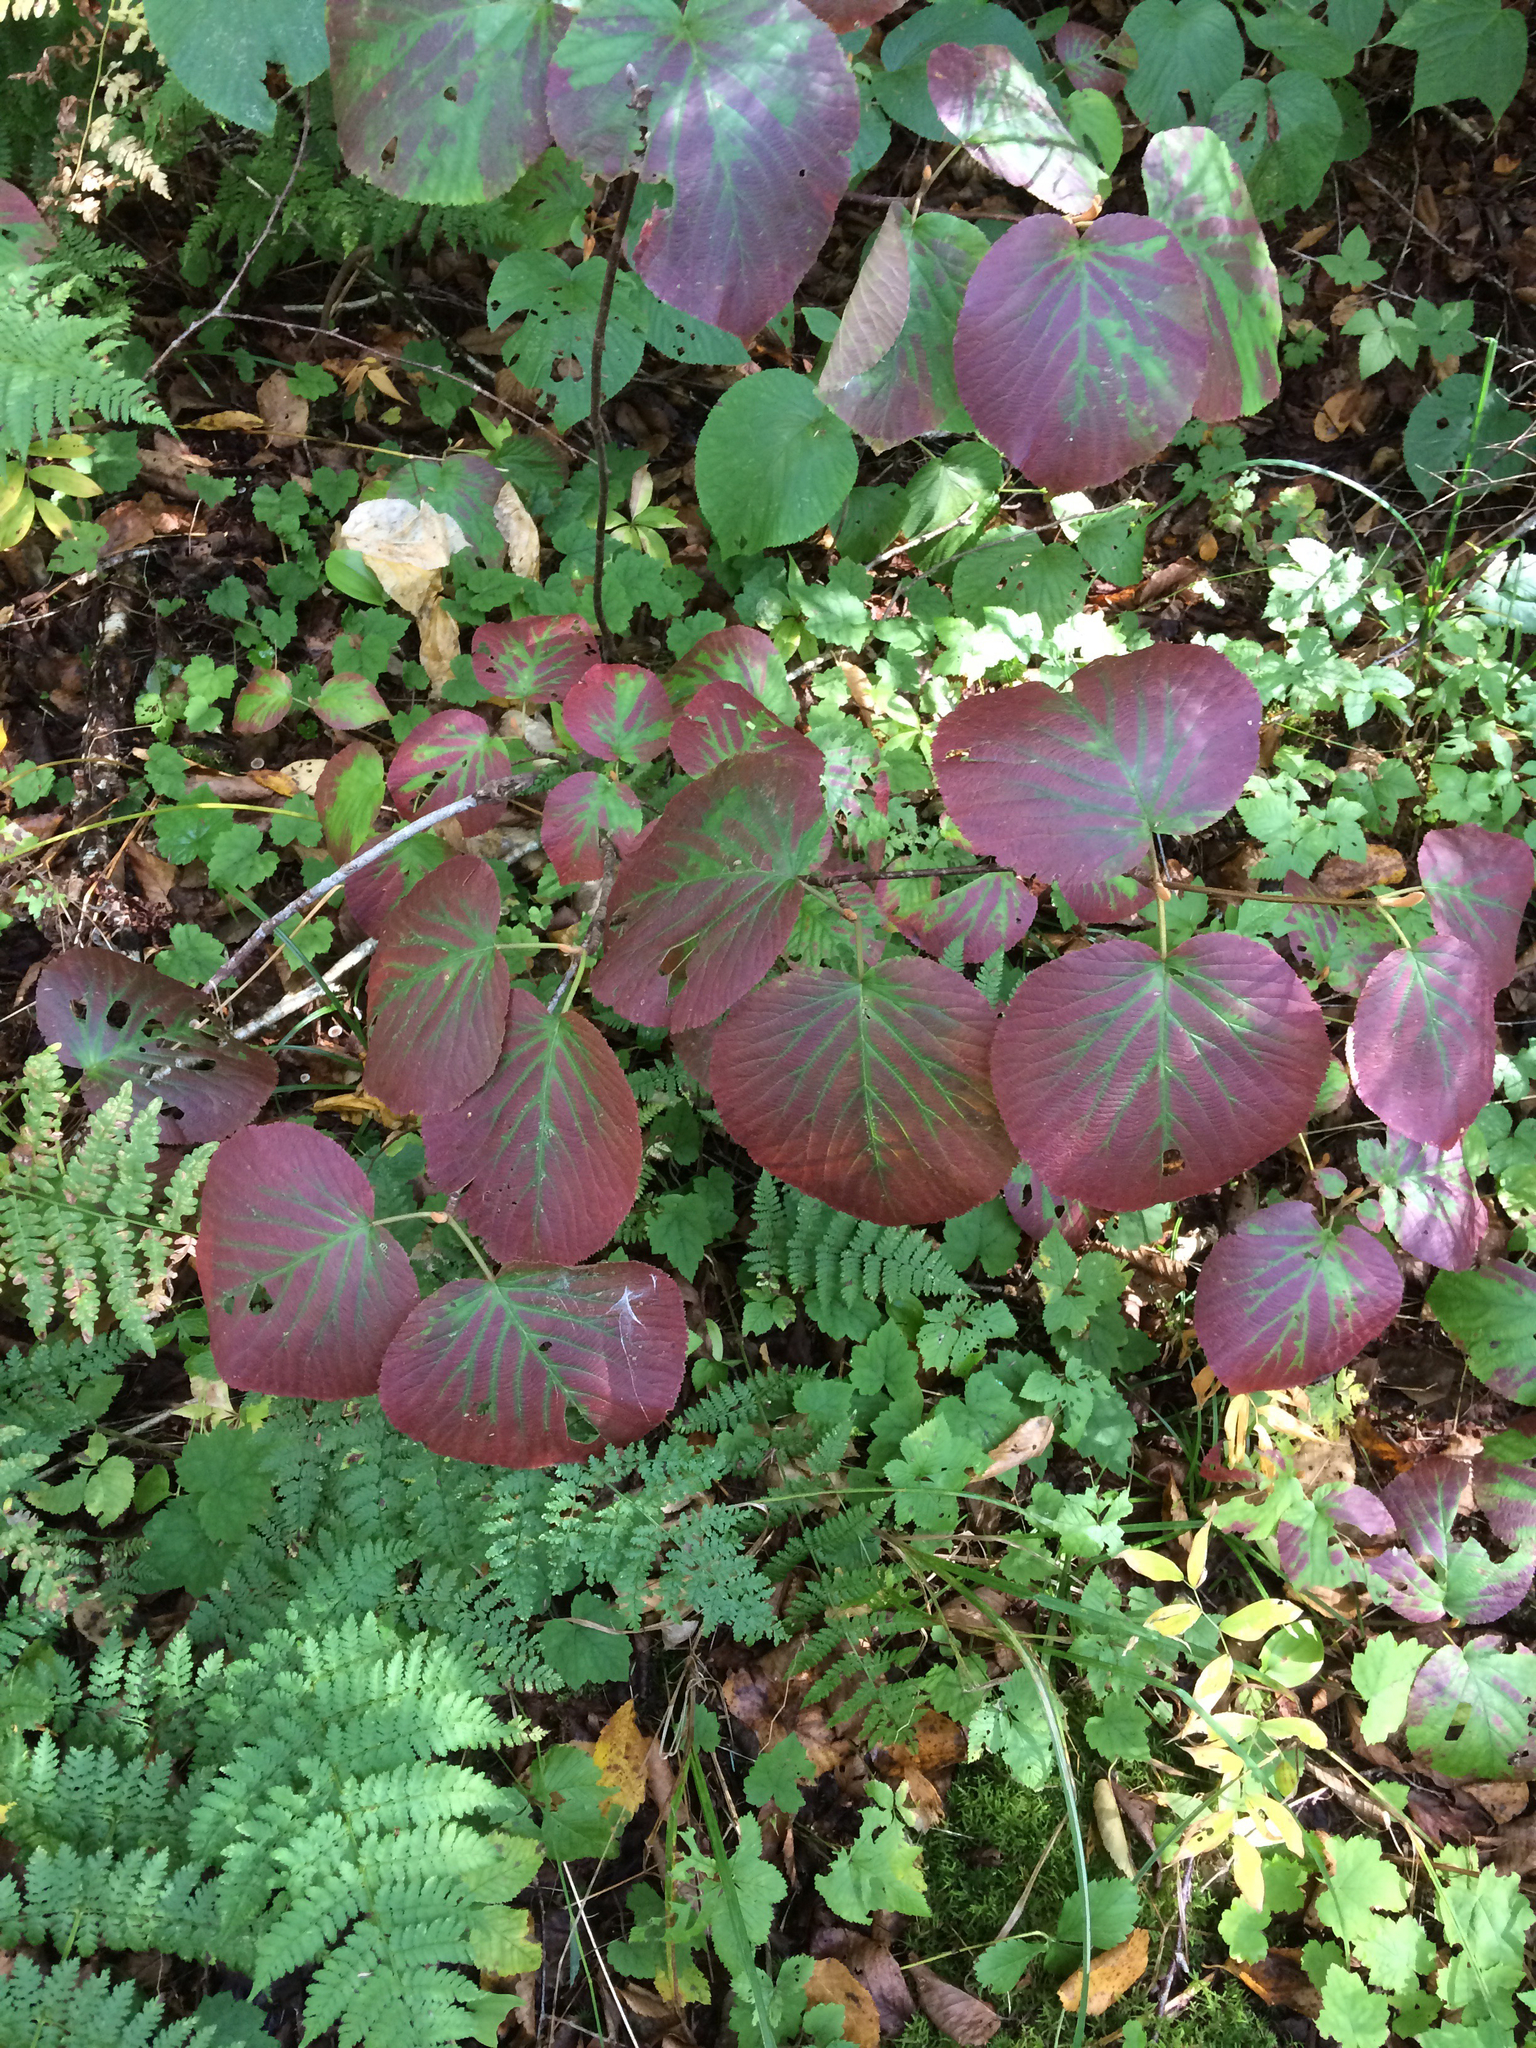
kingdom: Plantae
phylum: Tracheophyta
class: Magnoliopsida
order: Dipsacales
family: Viburnaceae
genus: Viburnum
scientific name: Viburnum lantanoides
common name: Hobblebush
